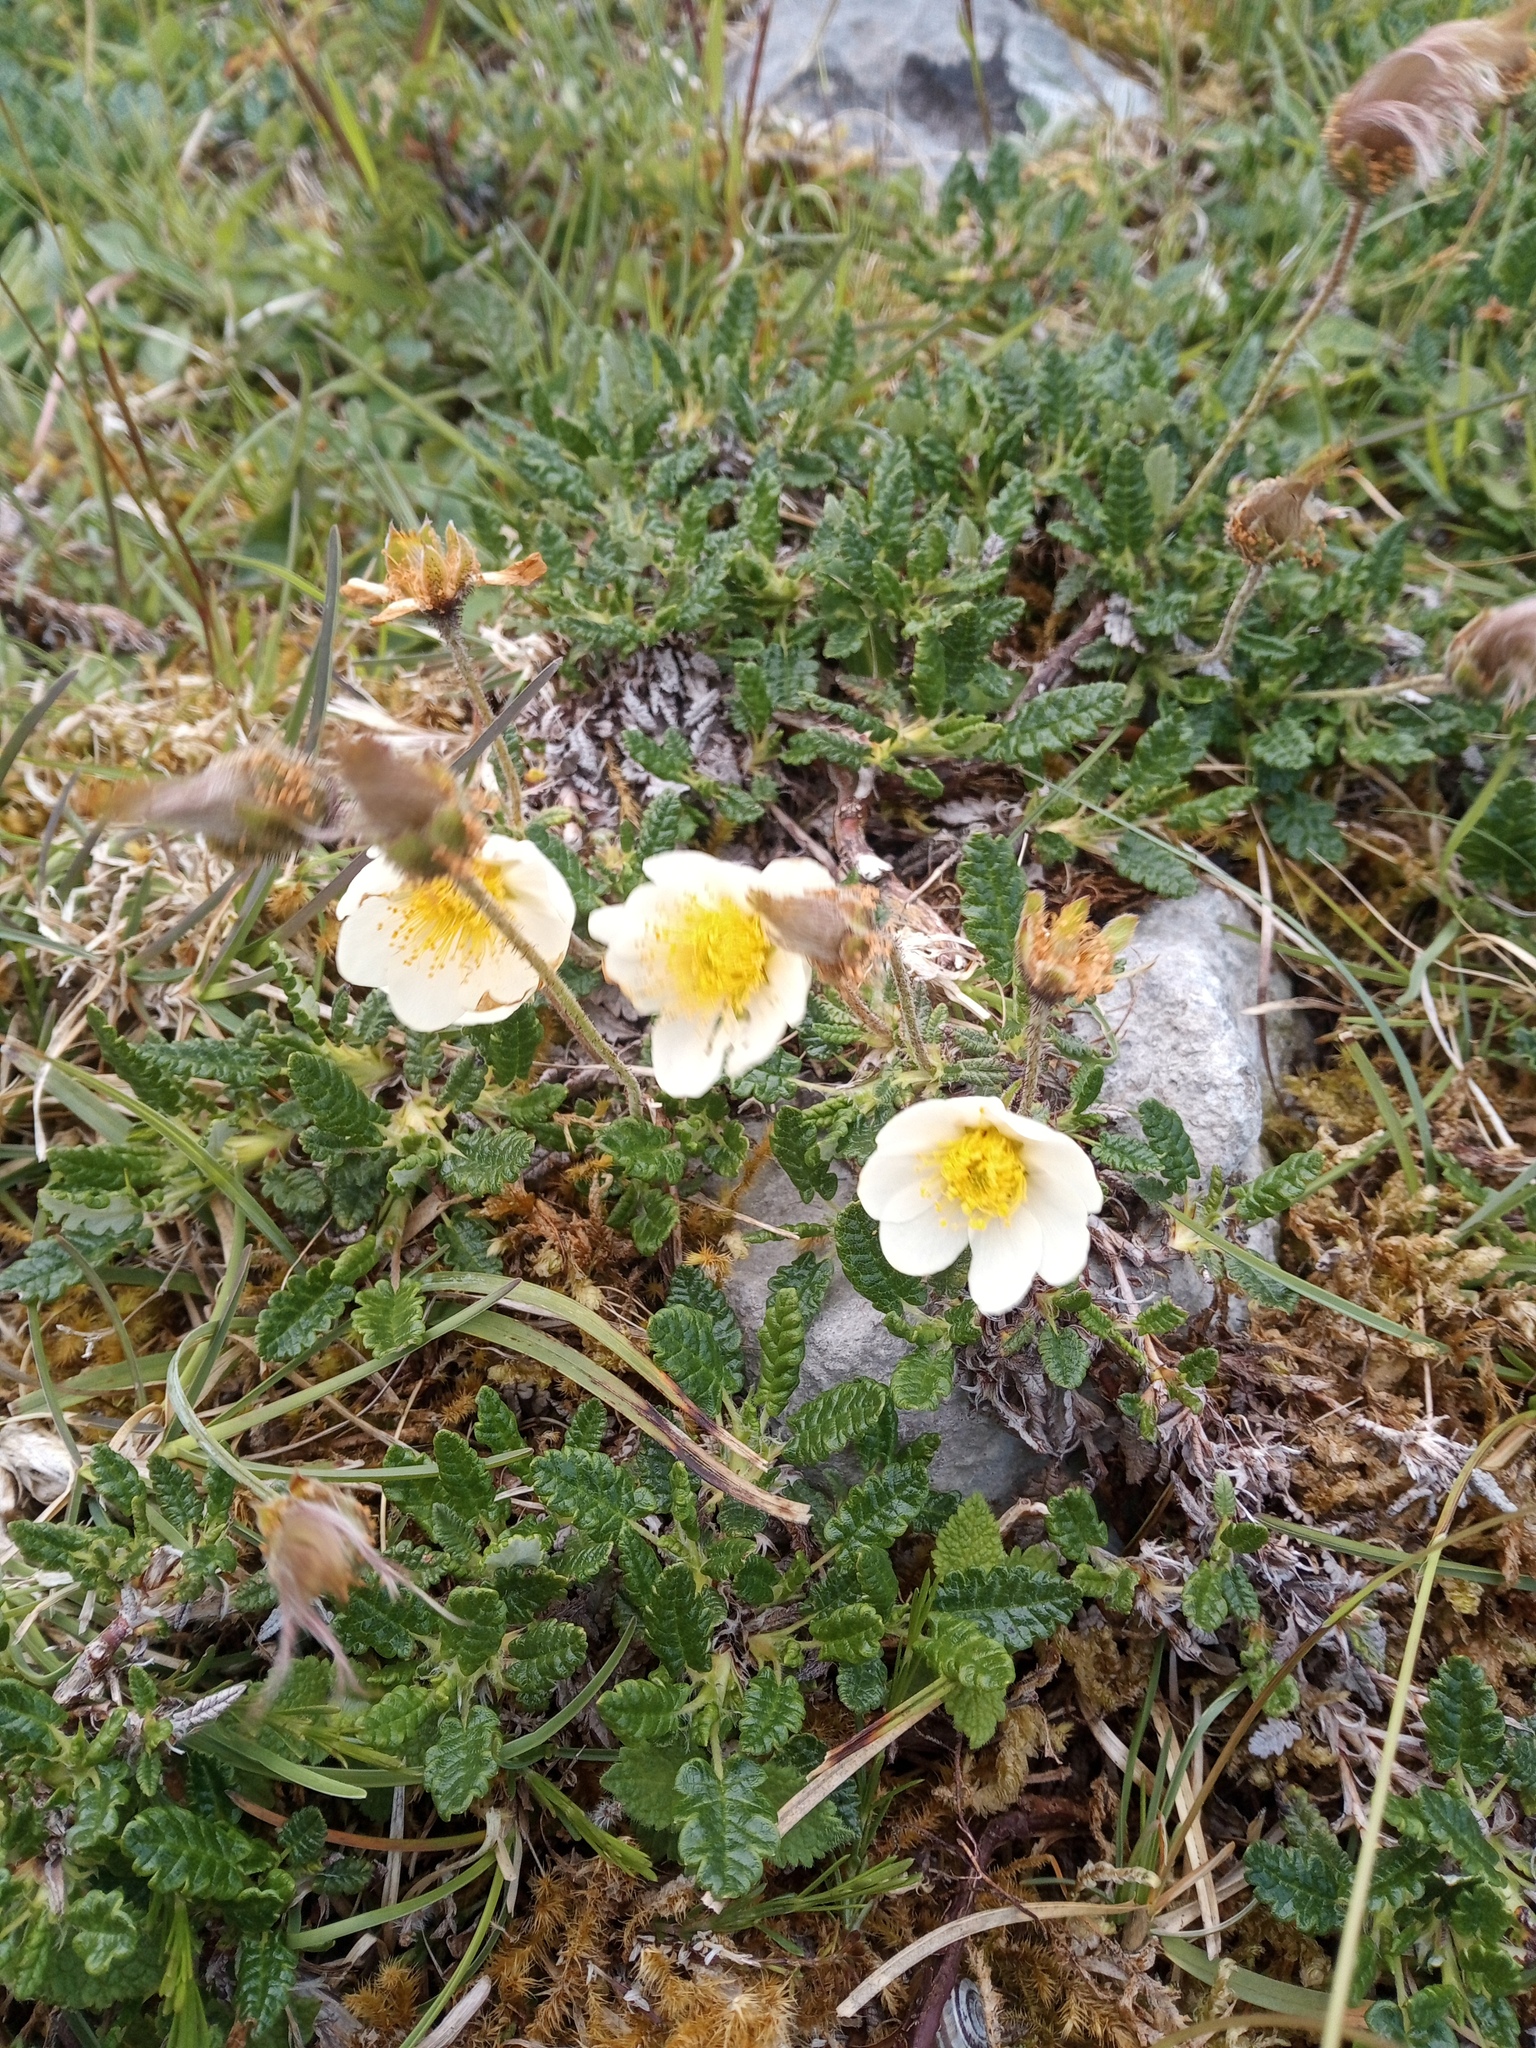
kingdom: Plantae
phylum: Tracheophyta
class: Magnoliopsida
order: Rosales
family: Rosaceae
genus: Dryas
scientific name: Dryas octopetala
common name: Eight-petal mountain-avens
